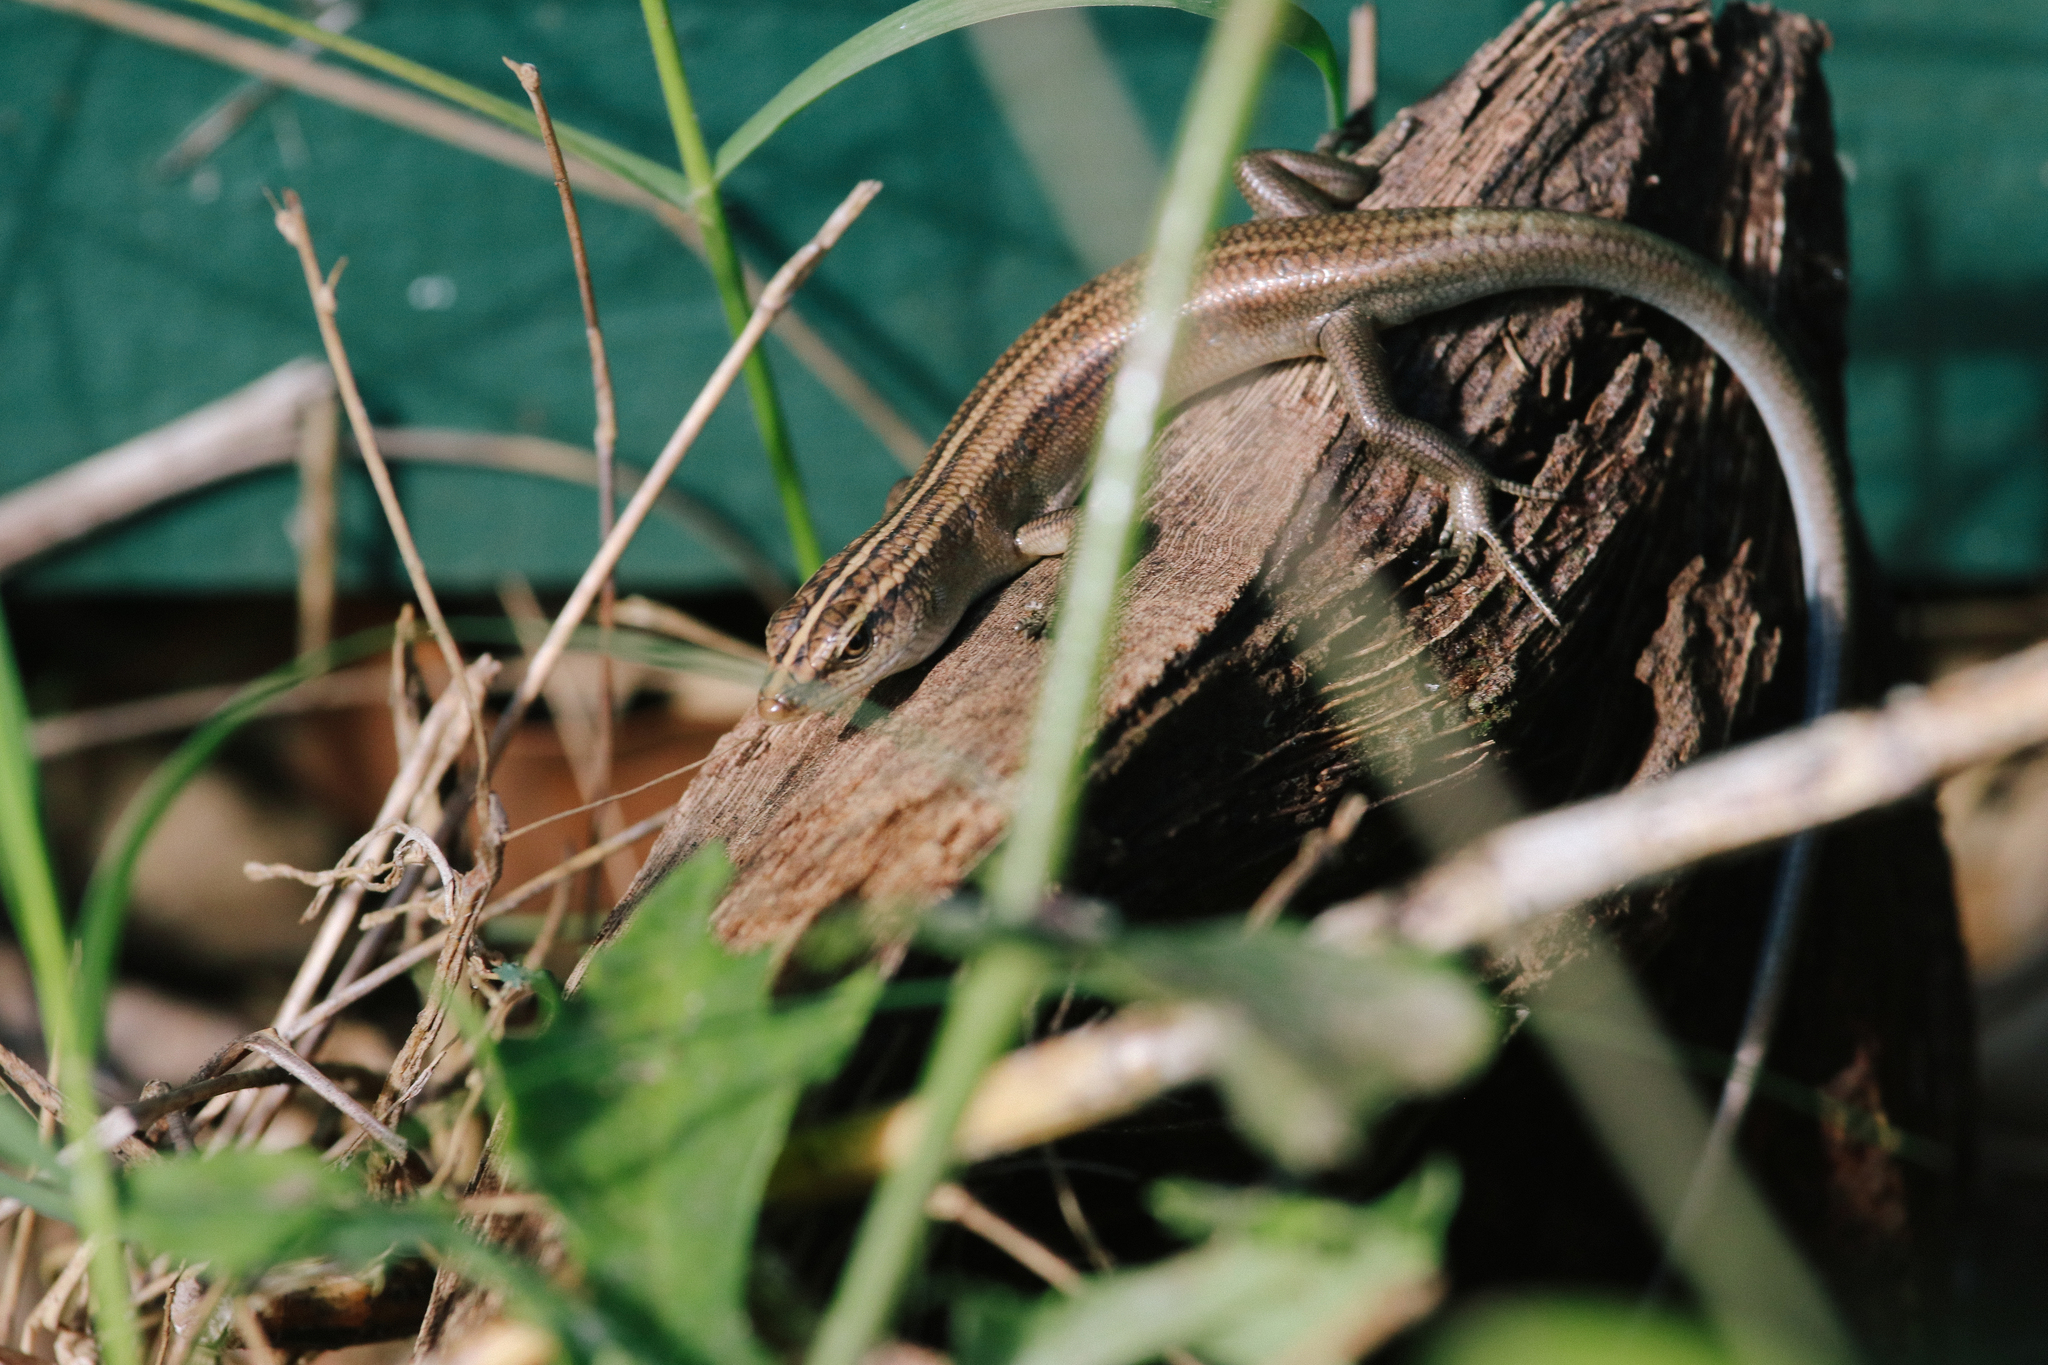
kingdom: Animalia
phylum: Chordata
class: Squamata
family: Scincidae
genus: Emoia
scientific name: Emoia cyanura
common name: Copper-tailed skink
